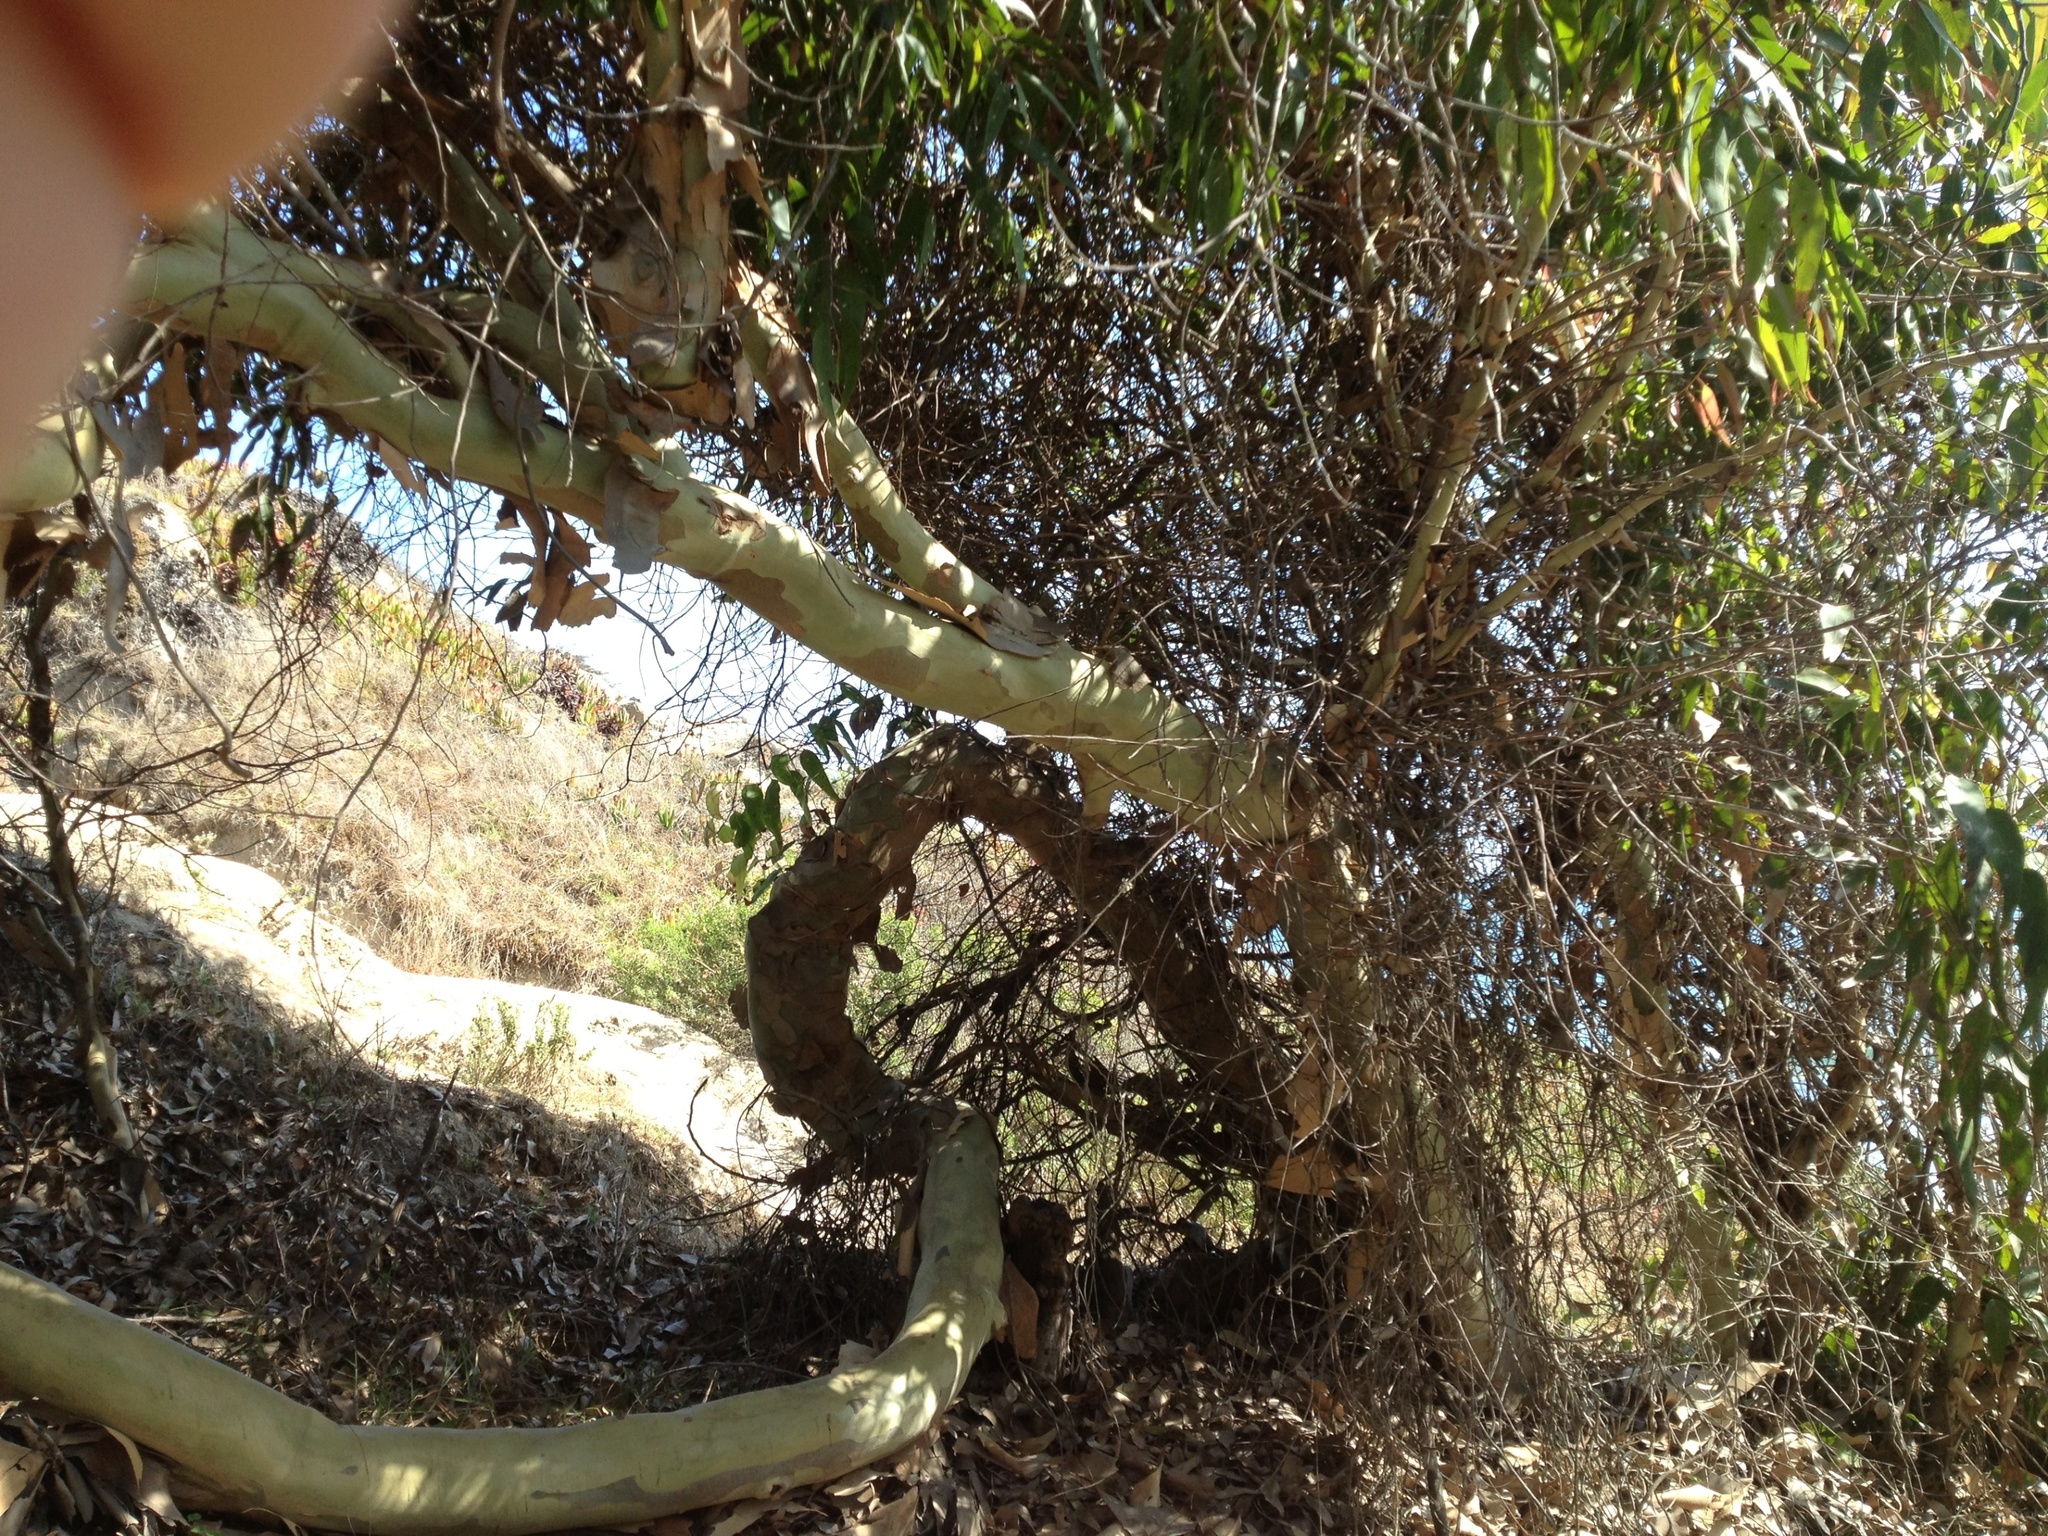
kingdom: Plantae
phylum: Tracheophyta
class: Magnoliopsida
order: Myrtales
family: Myrtaceae
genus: Corymbia
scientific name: Corymbia maculata
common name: Spotted gum
